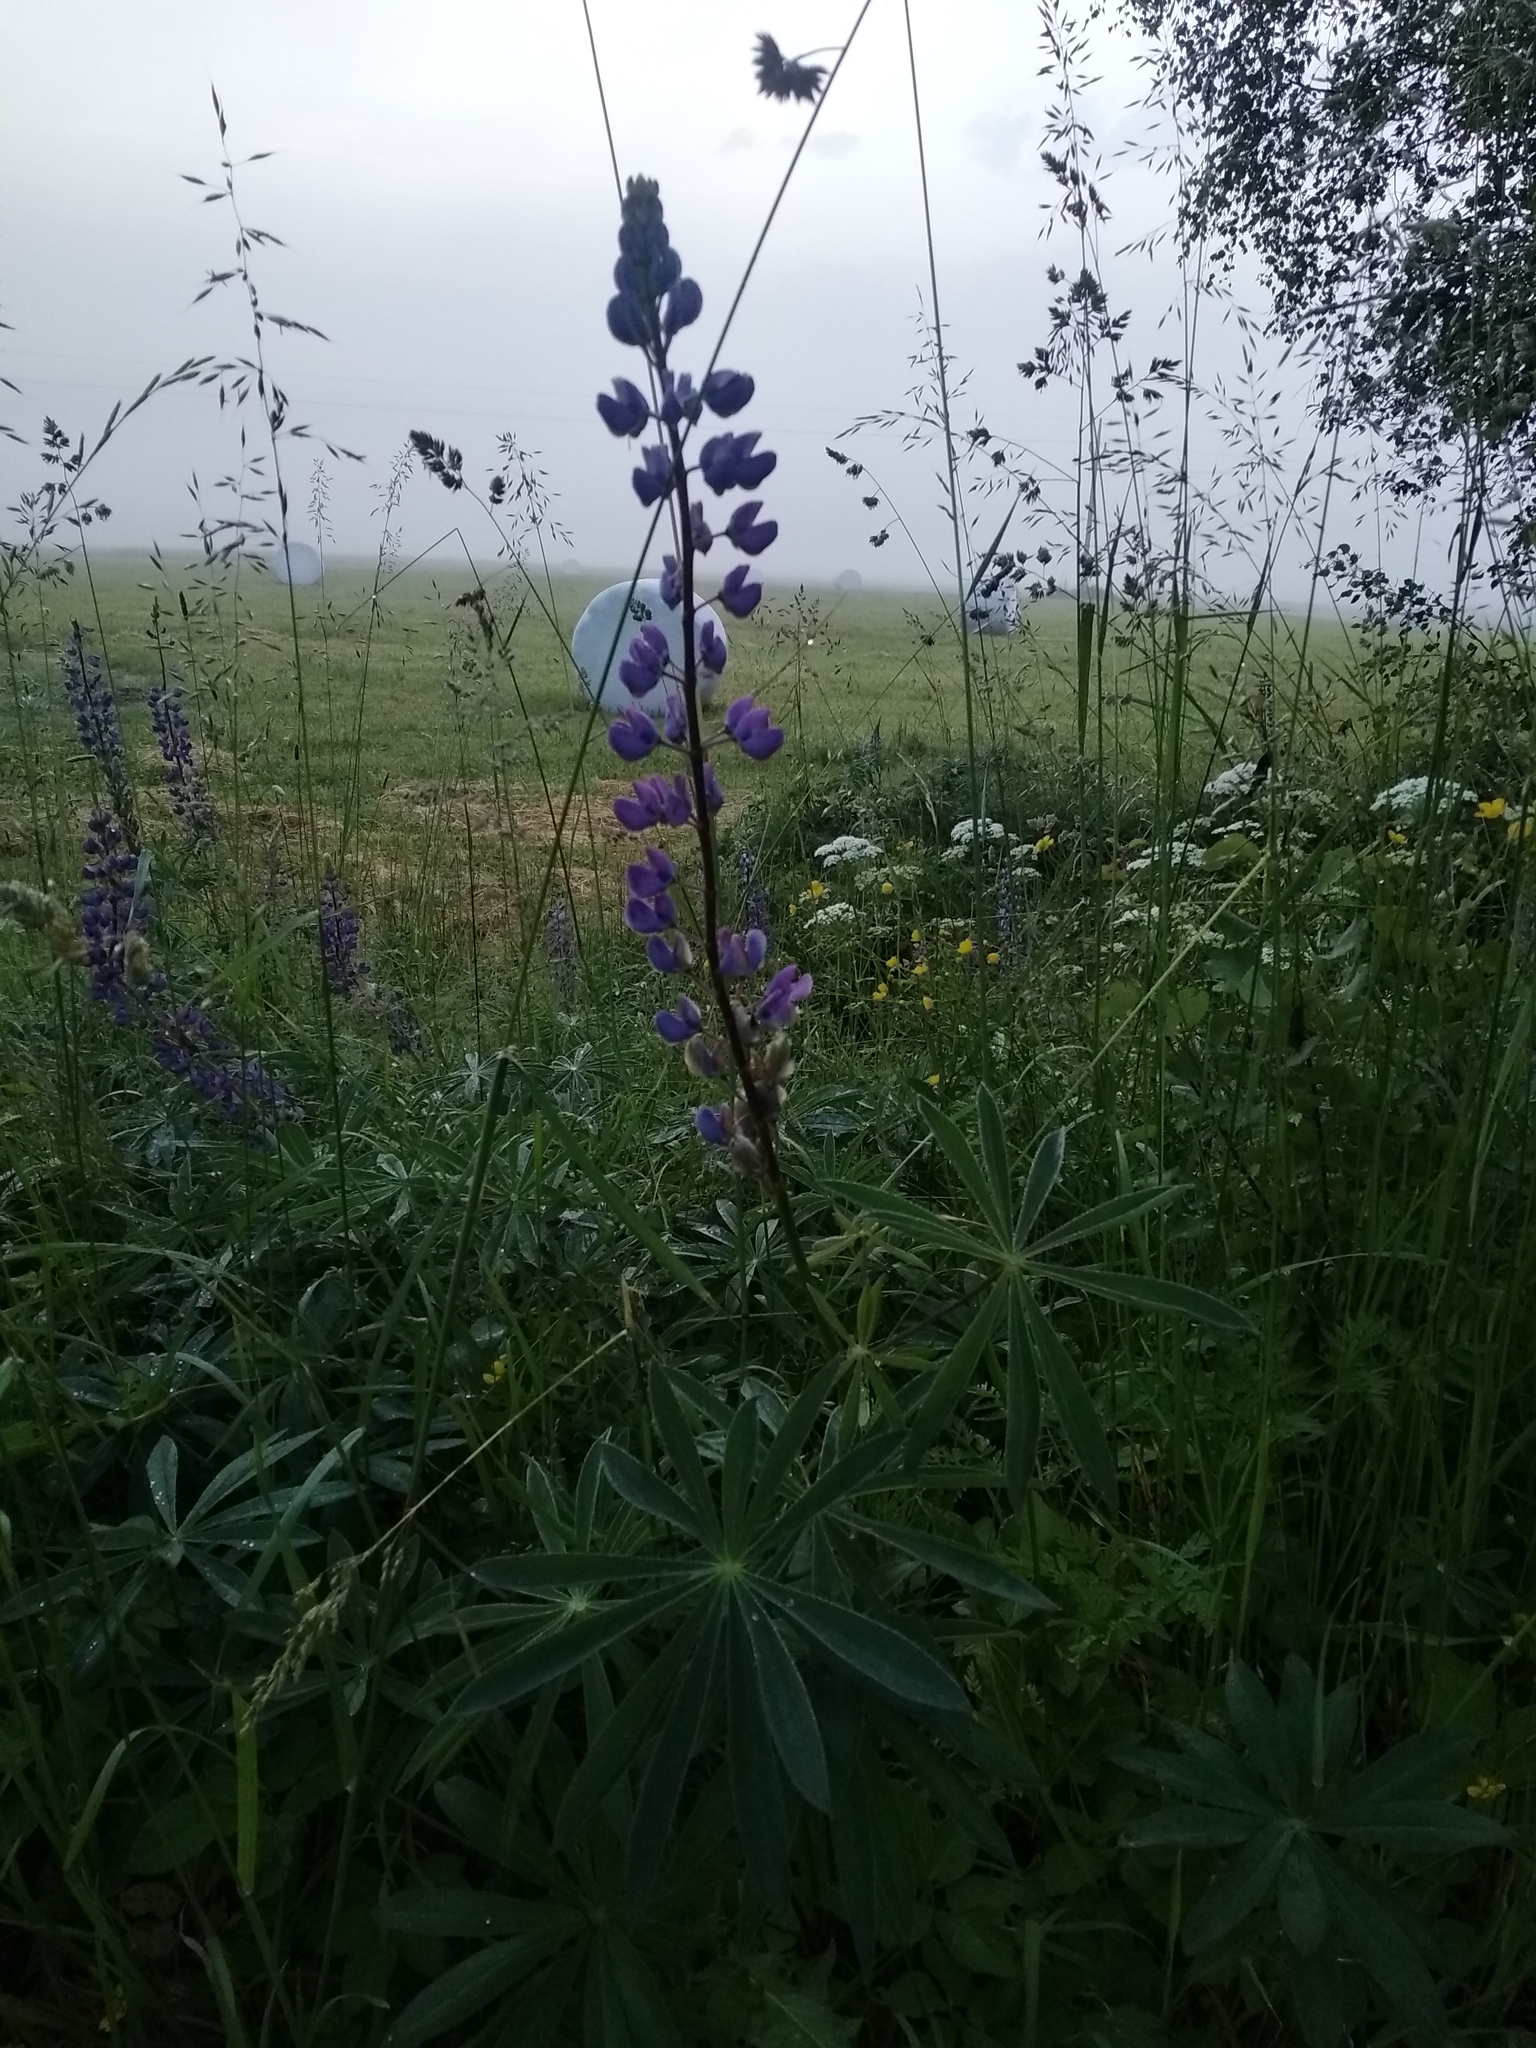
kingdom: Plantae
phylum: Tracheophyta
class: Magnoliopsida
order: Fabales
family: Fabaceae
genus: Lupinus
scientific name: Lupinus polyphyllus
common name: Garden lupin
